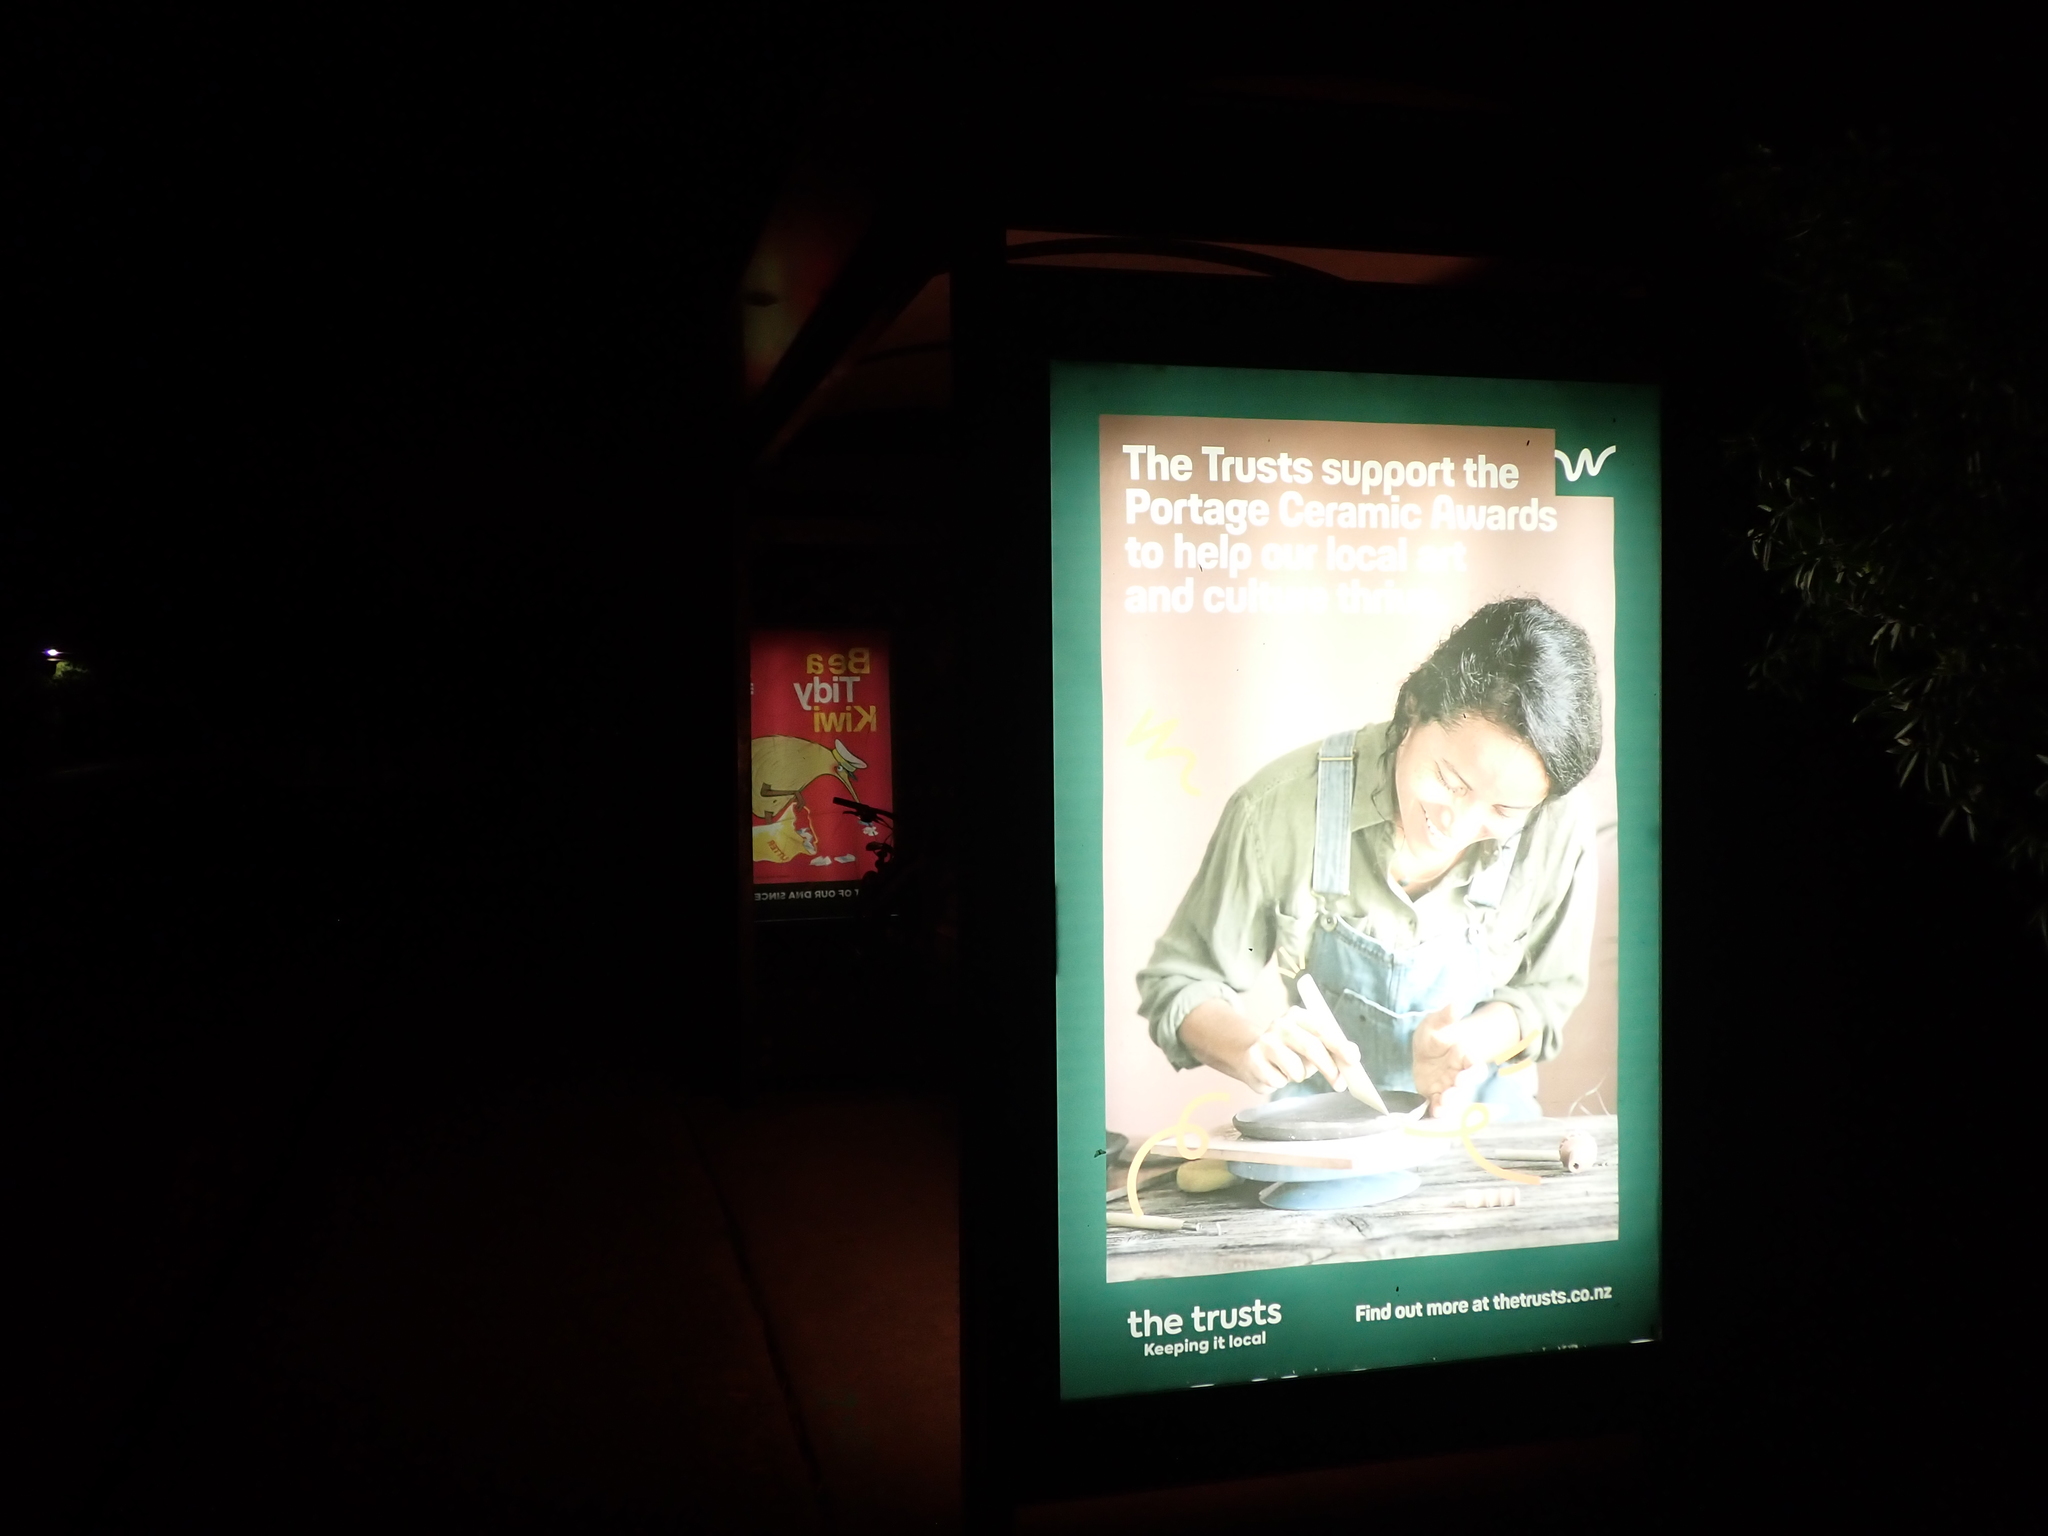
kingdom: Animalia
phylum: Arthropoda
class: Insecta
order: Lepidoptera
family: Crambidae
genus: Eudonia
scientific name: Eudonia minualis
